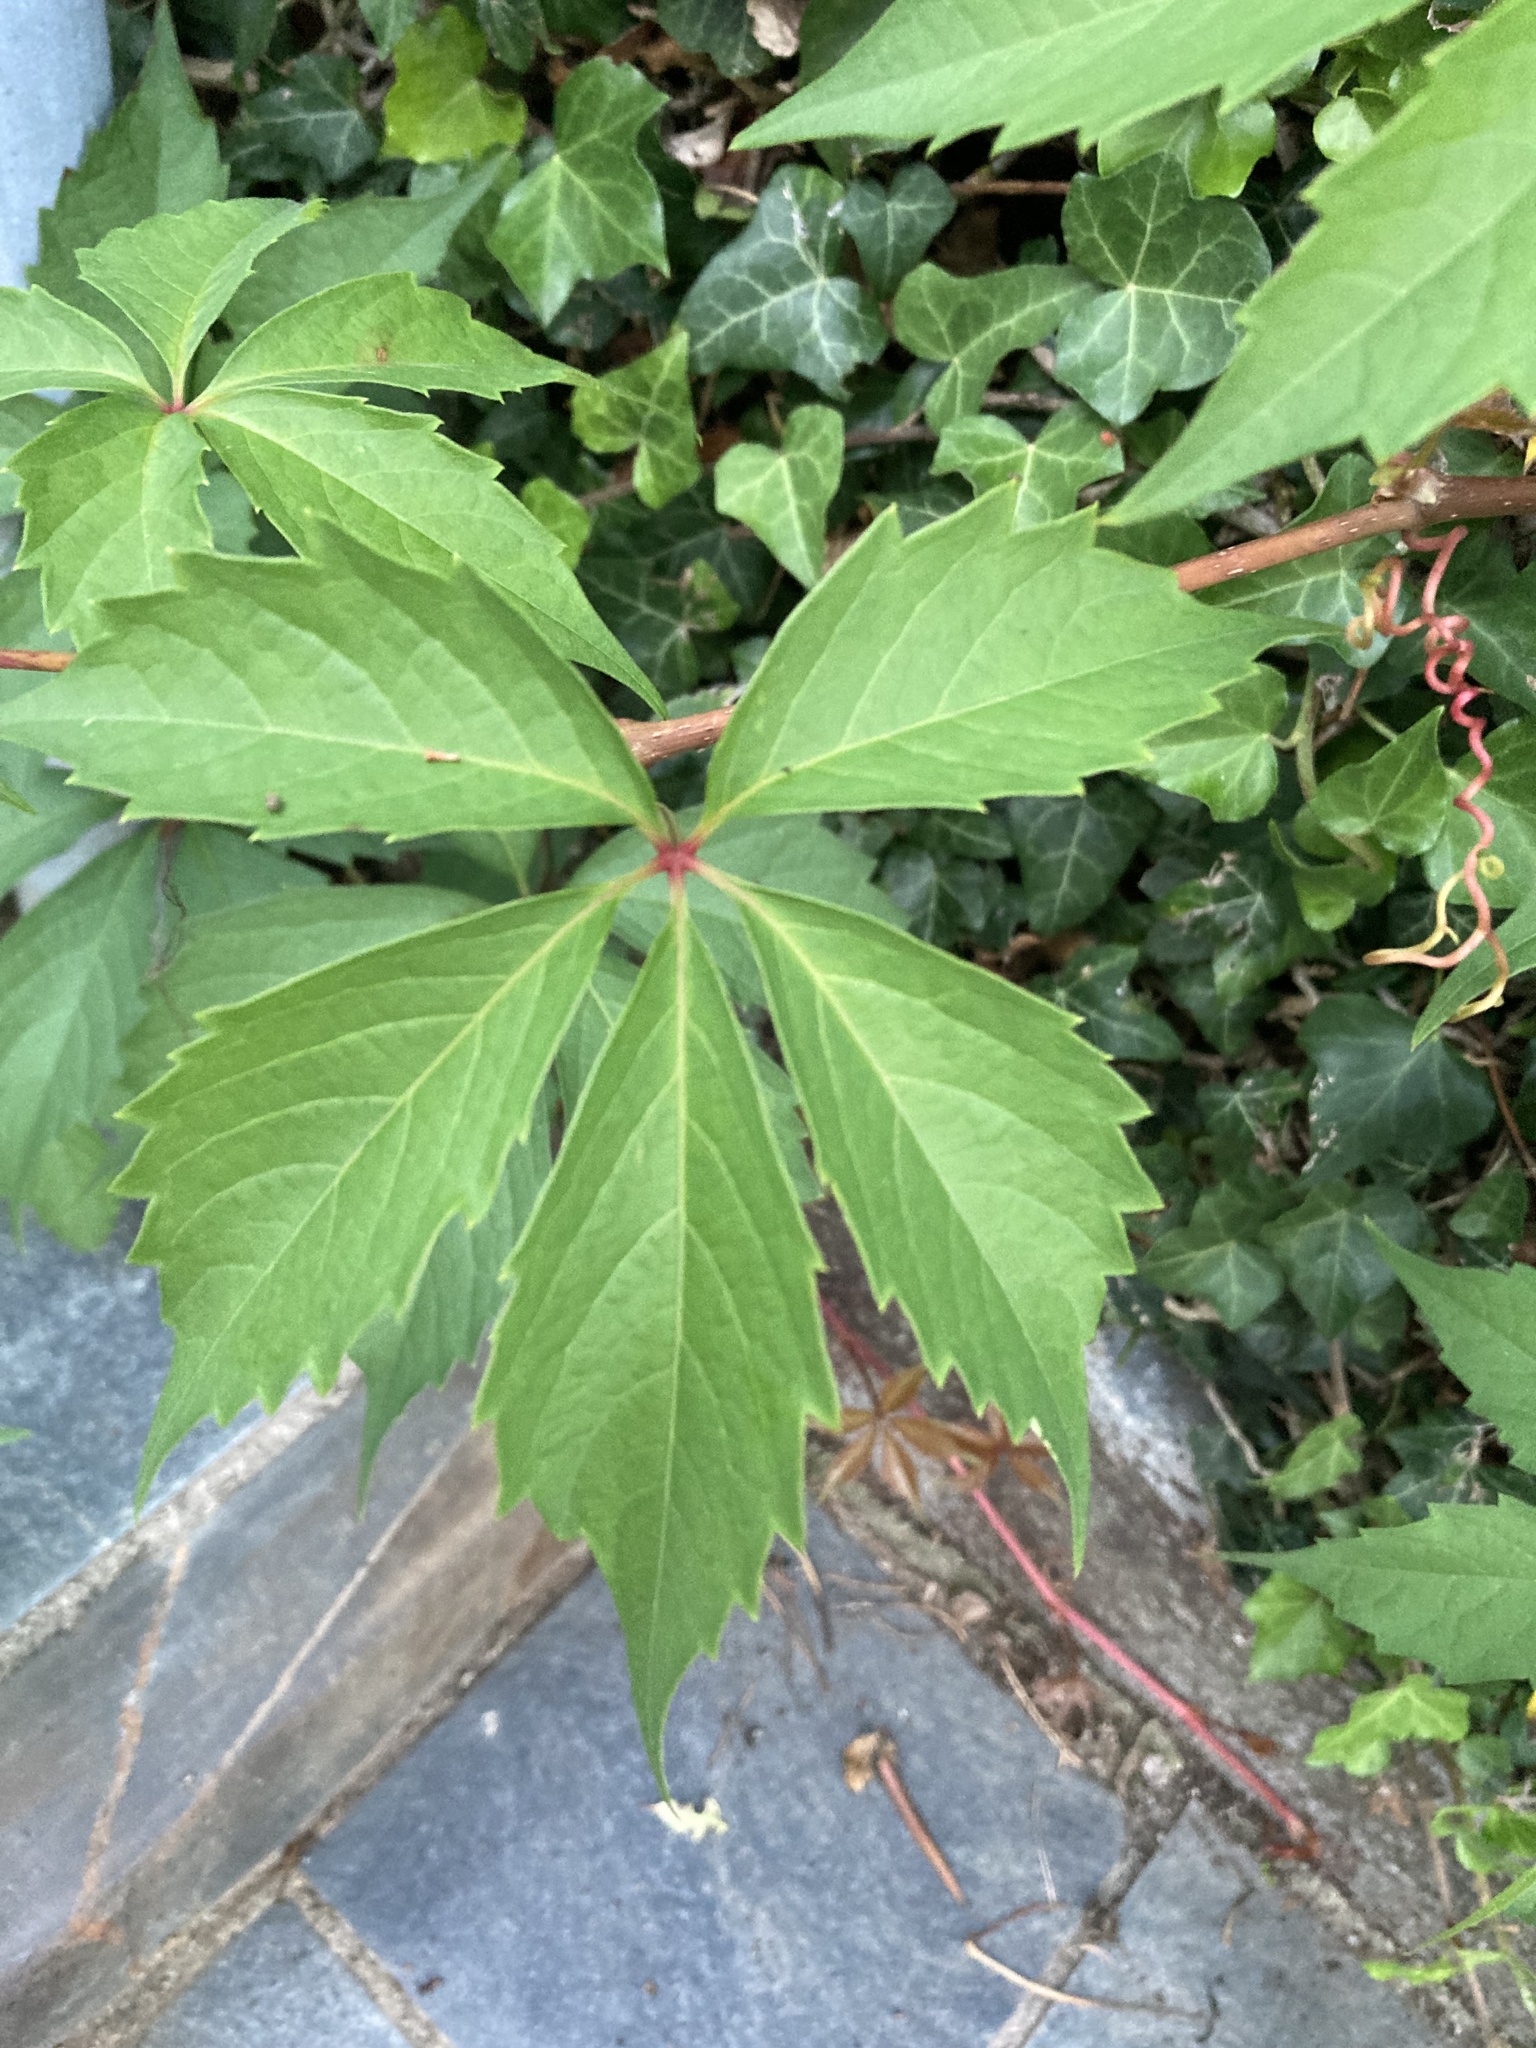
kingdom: Plantae
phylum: Tracheophyta
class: Magnoliopsida
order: Vitales
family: Vitaceae
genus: Parthenocissus
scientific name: Parthenocissus quinquefolia
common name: Virginia-creeper
